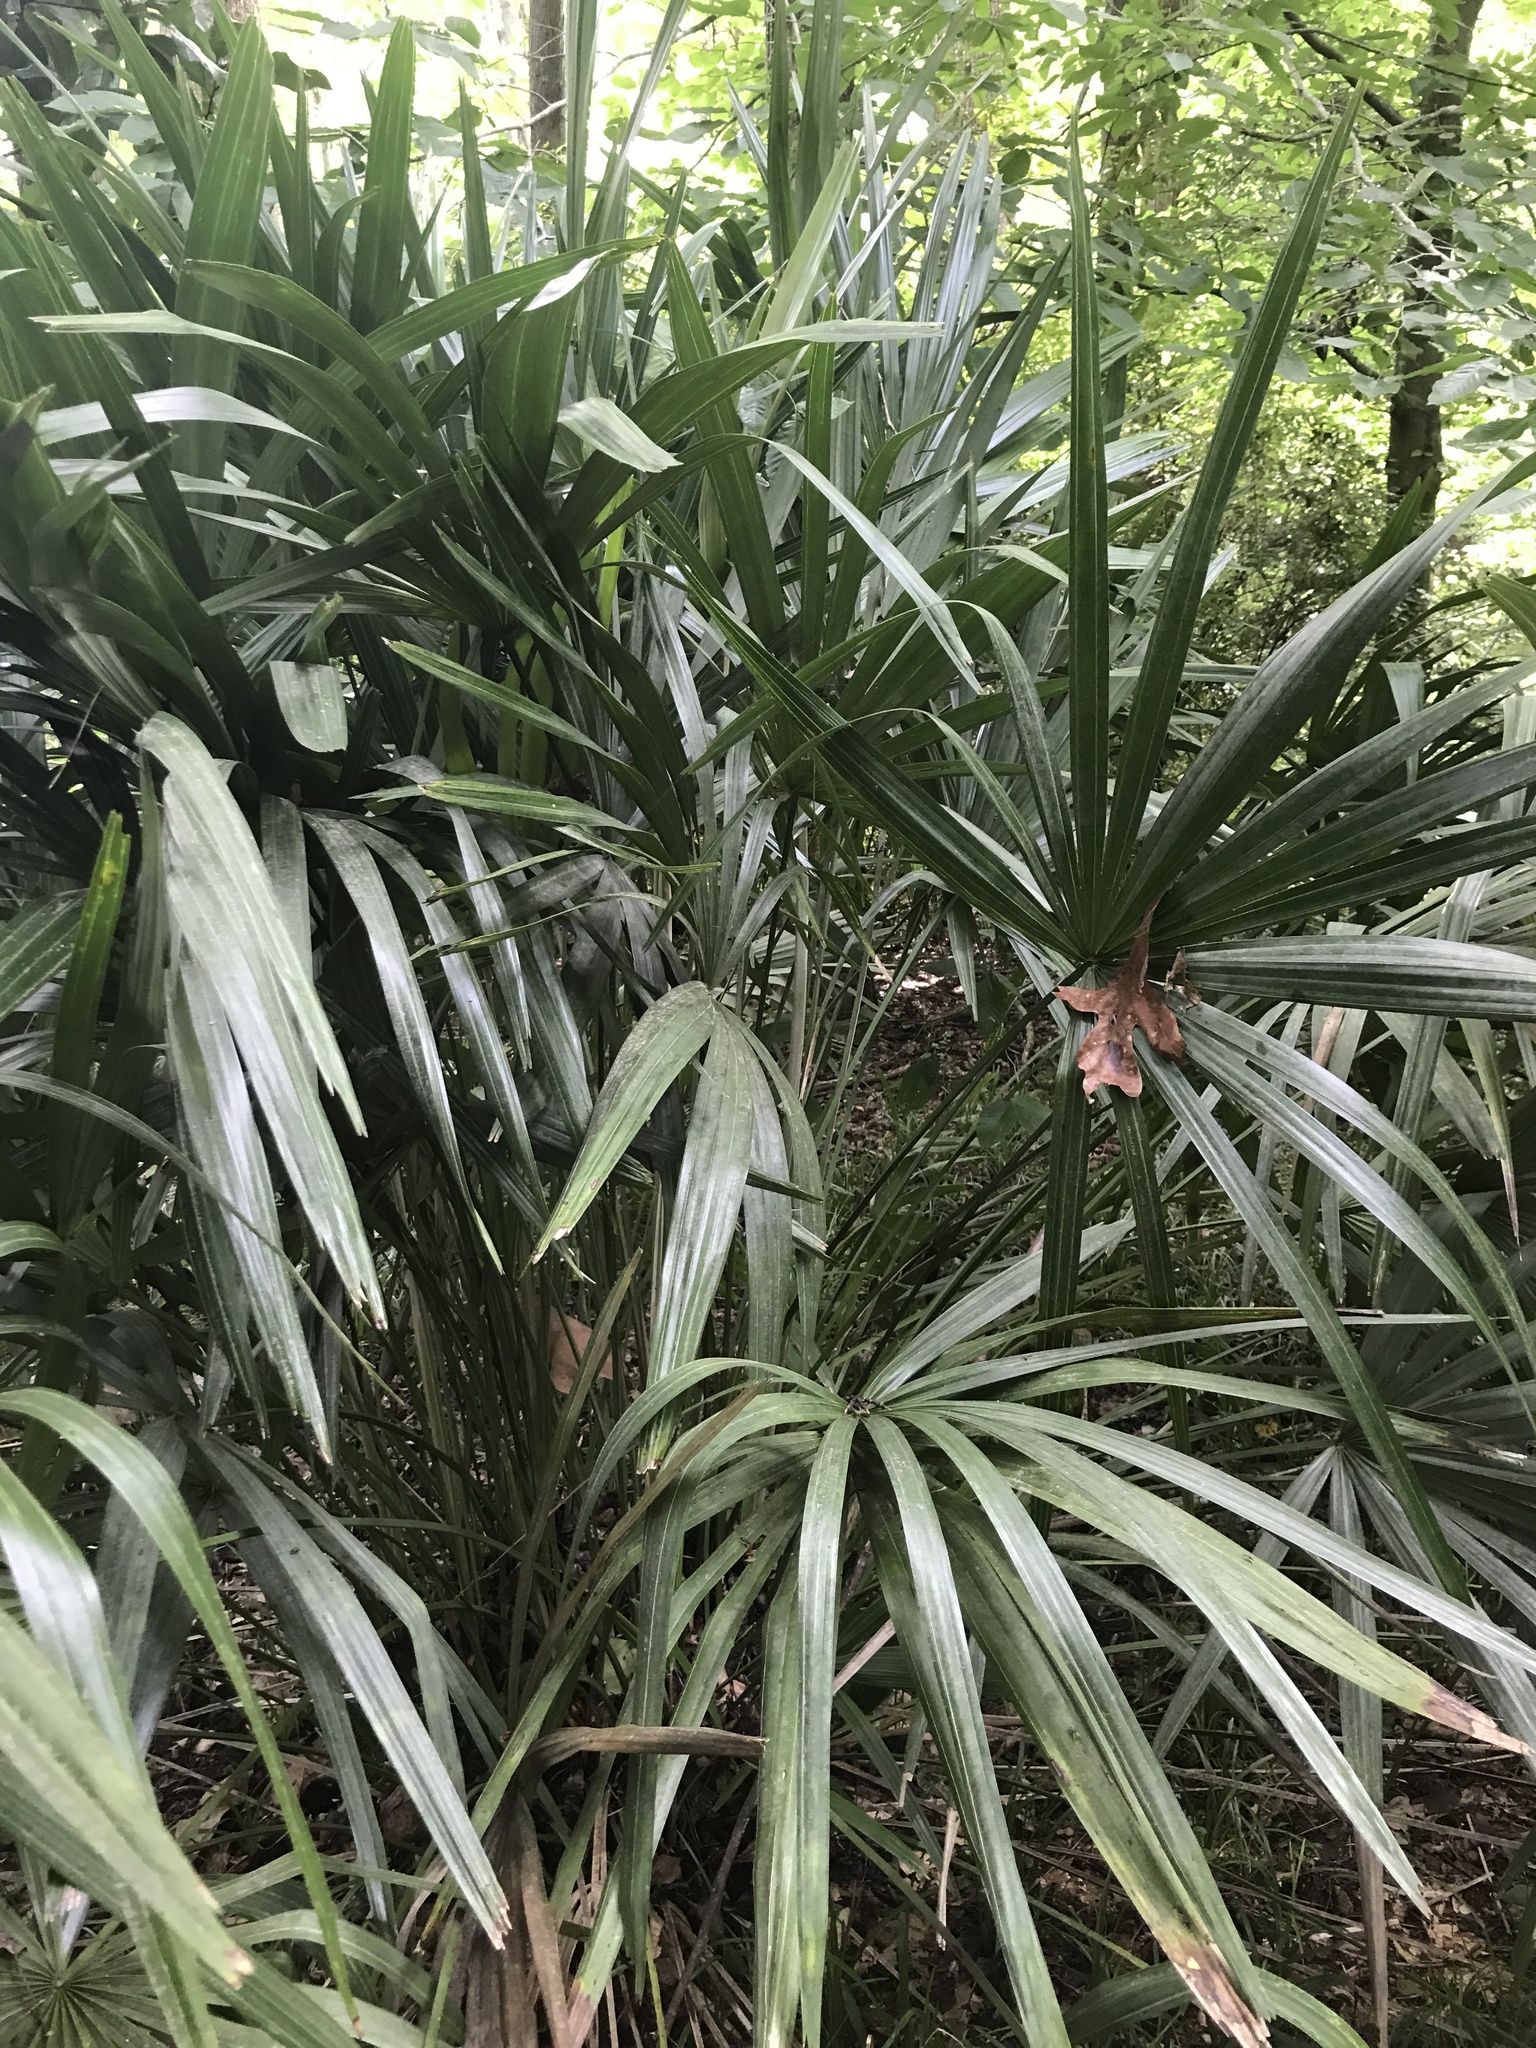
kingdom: Plantae
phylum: Tracheophyta
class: Liliopsida
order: Arecales
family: Arecaceae
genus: Rhapidophyllum
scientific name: Rhapidophyllum hystrix
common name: Porcupine palm
